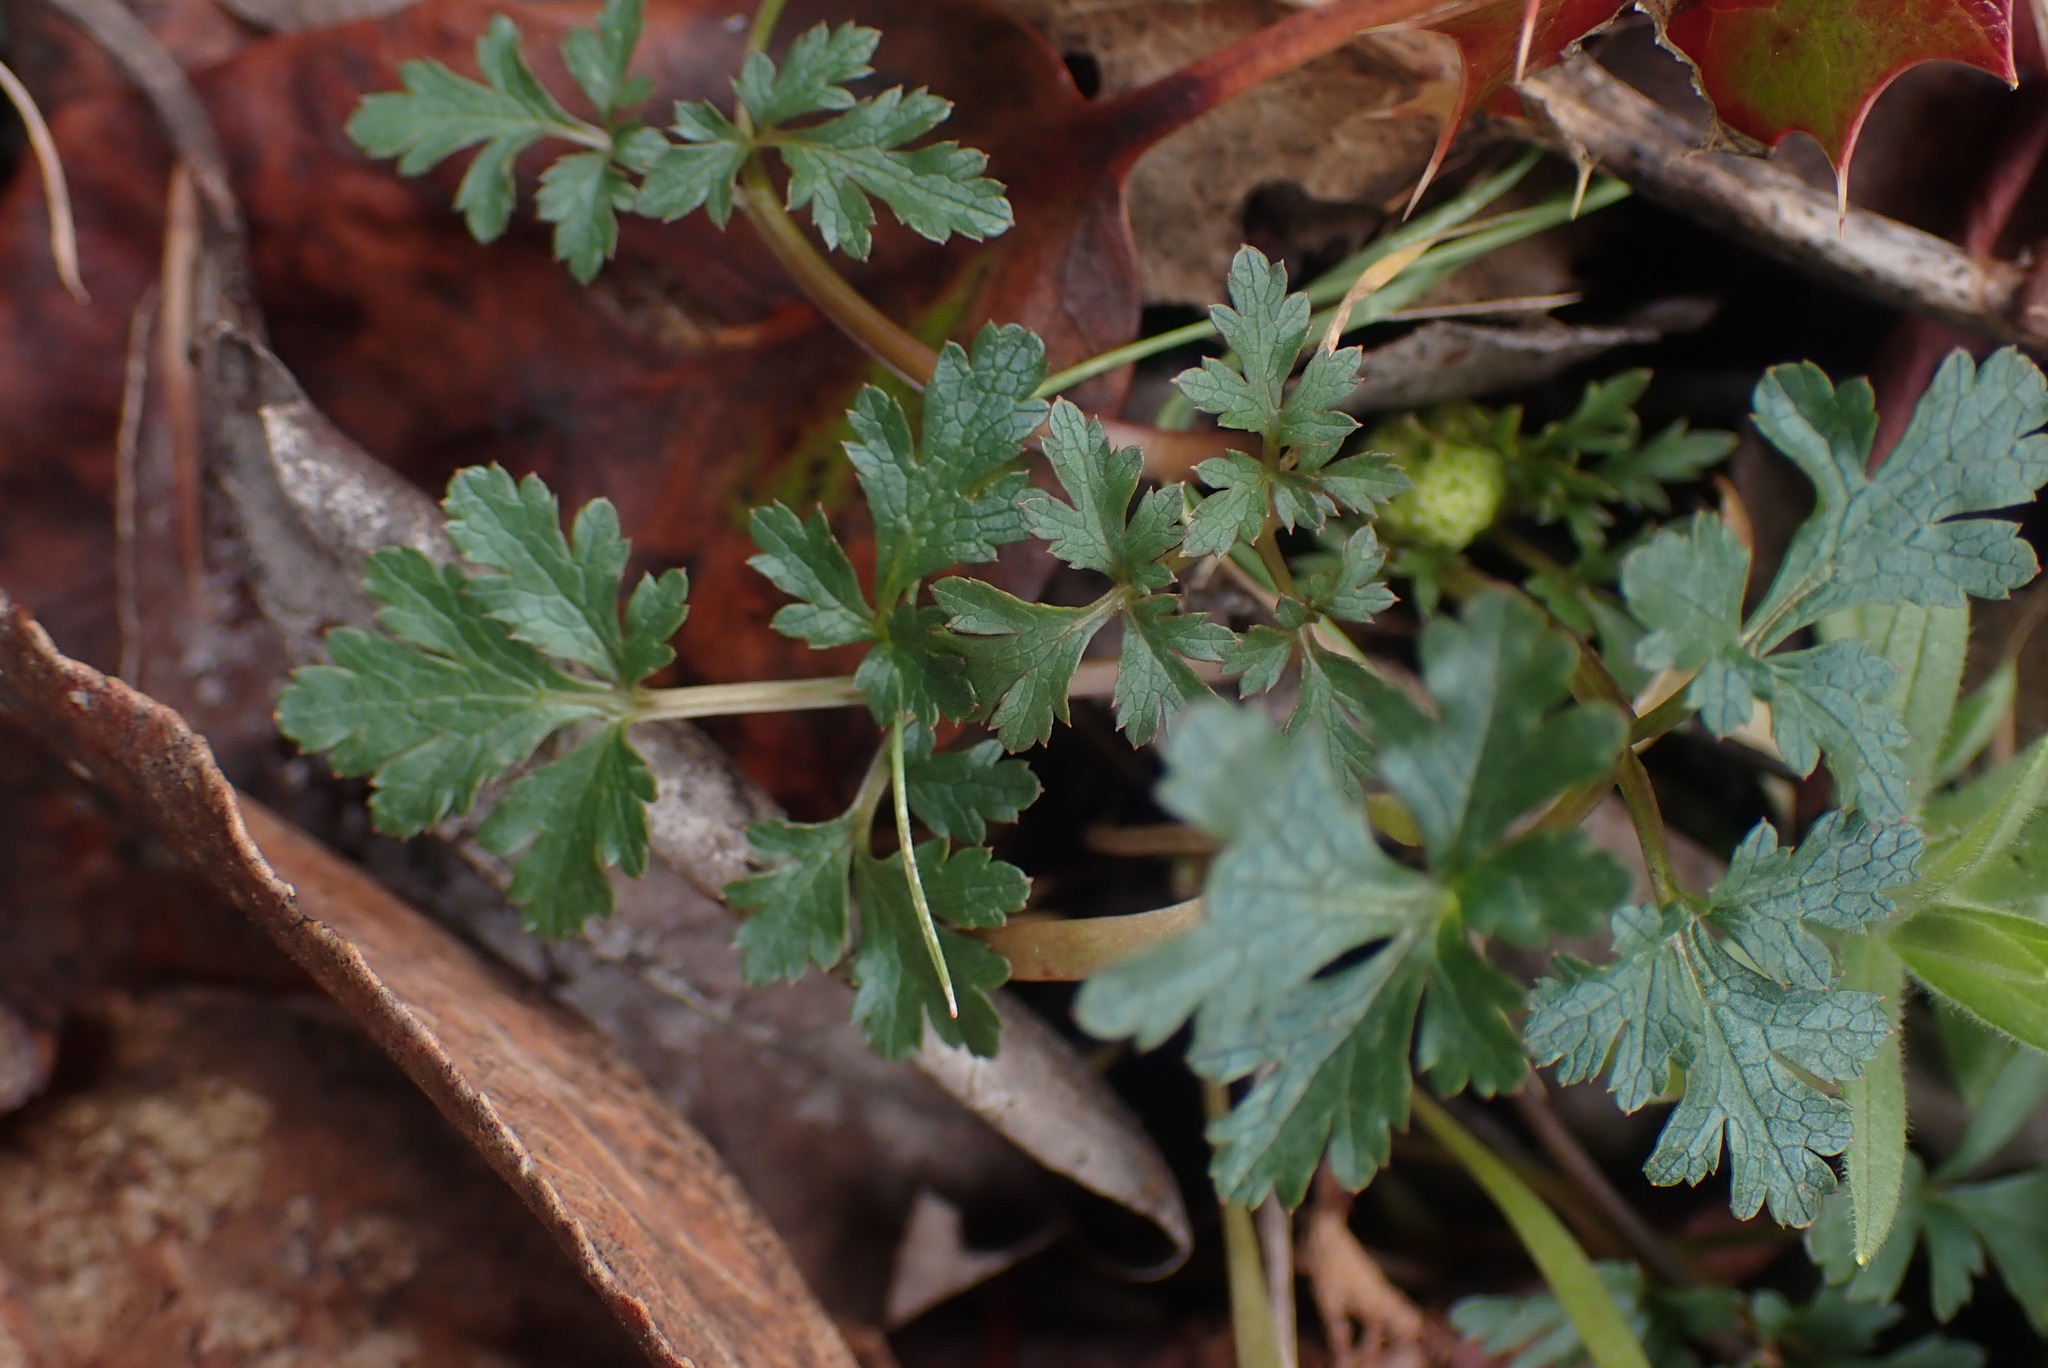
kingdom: Plantae
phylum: Tracheophyta
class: Magnoliopsida
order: Apiales
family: Apiaceae
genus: Sanicula
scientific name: Sanicula graveolens
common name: Sierra sanicle
